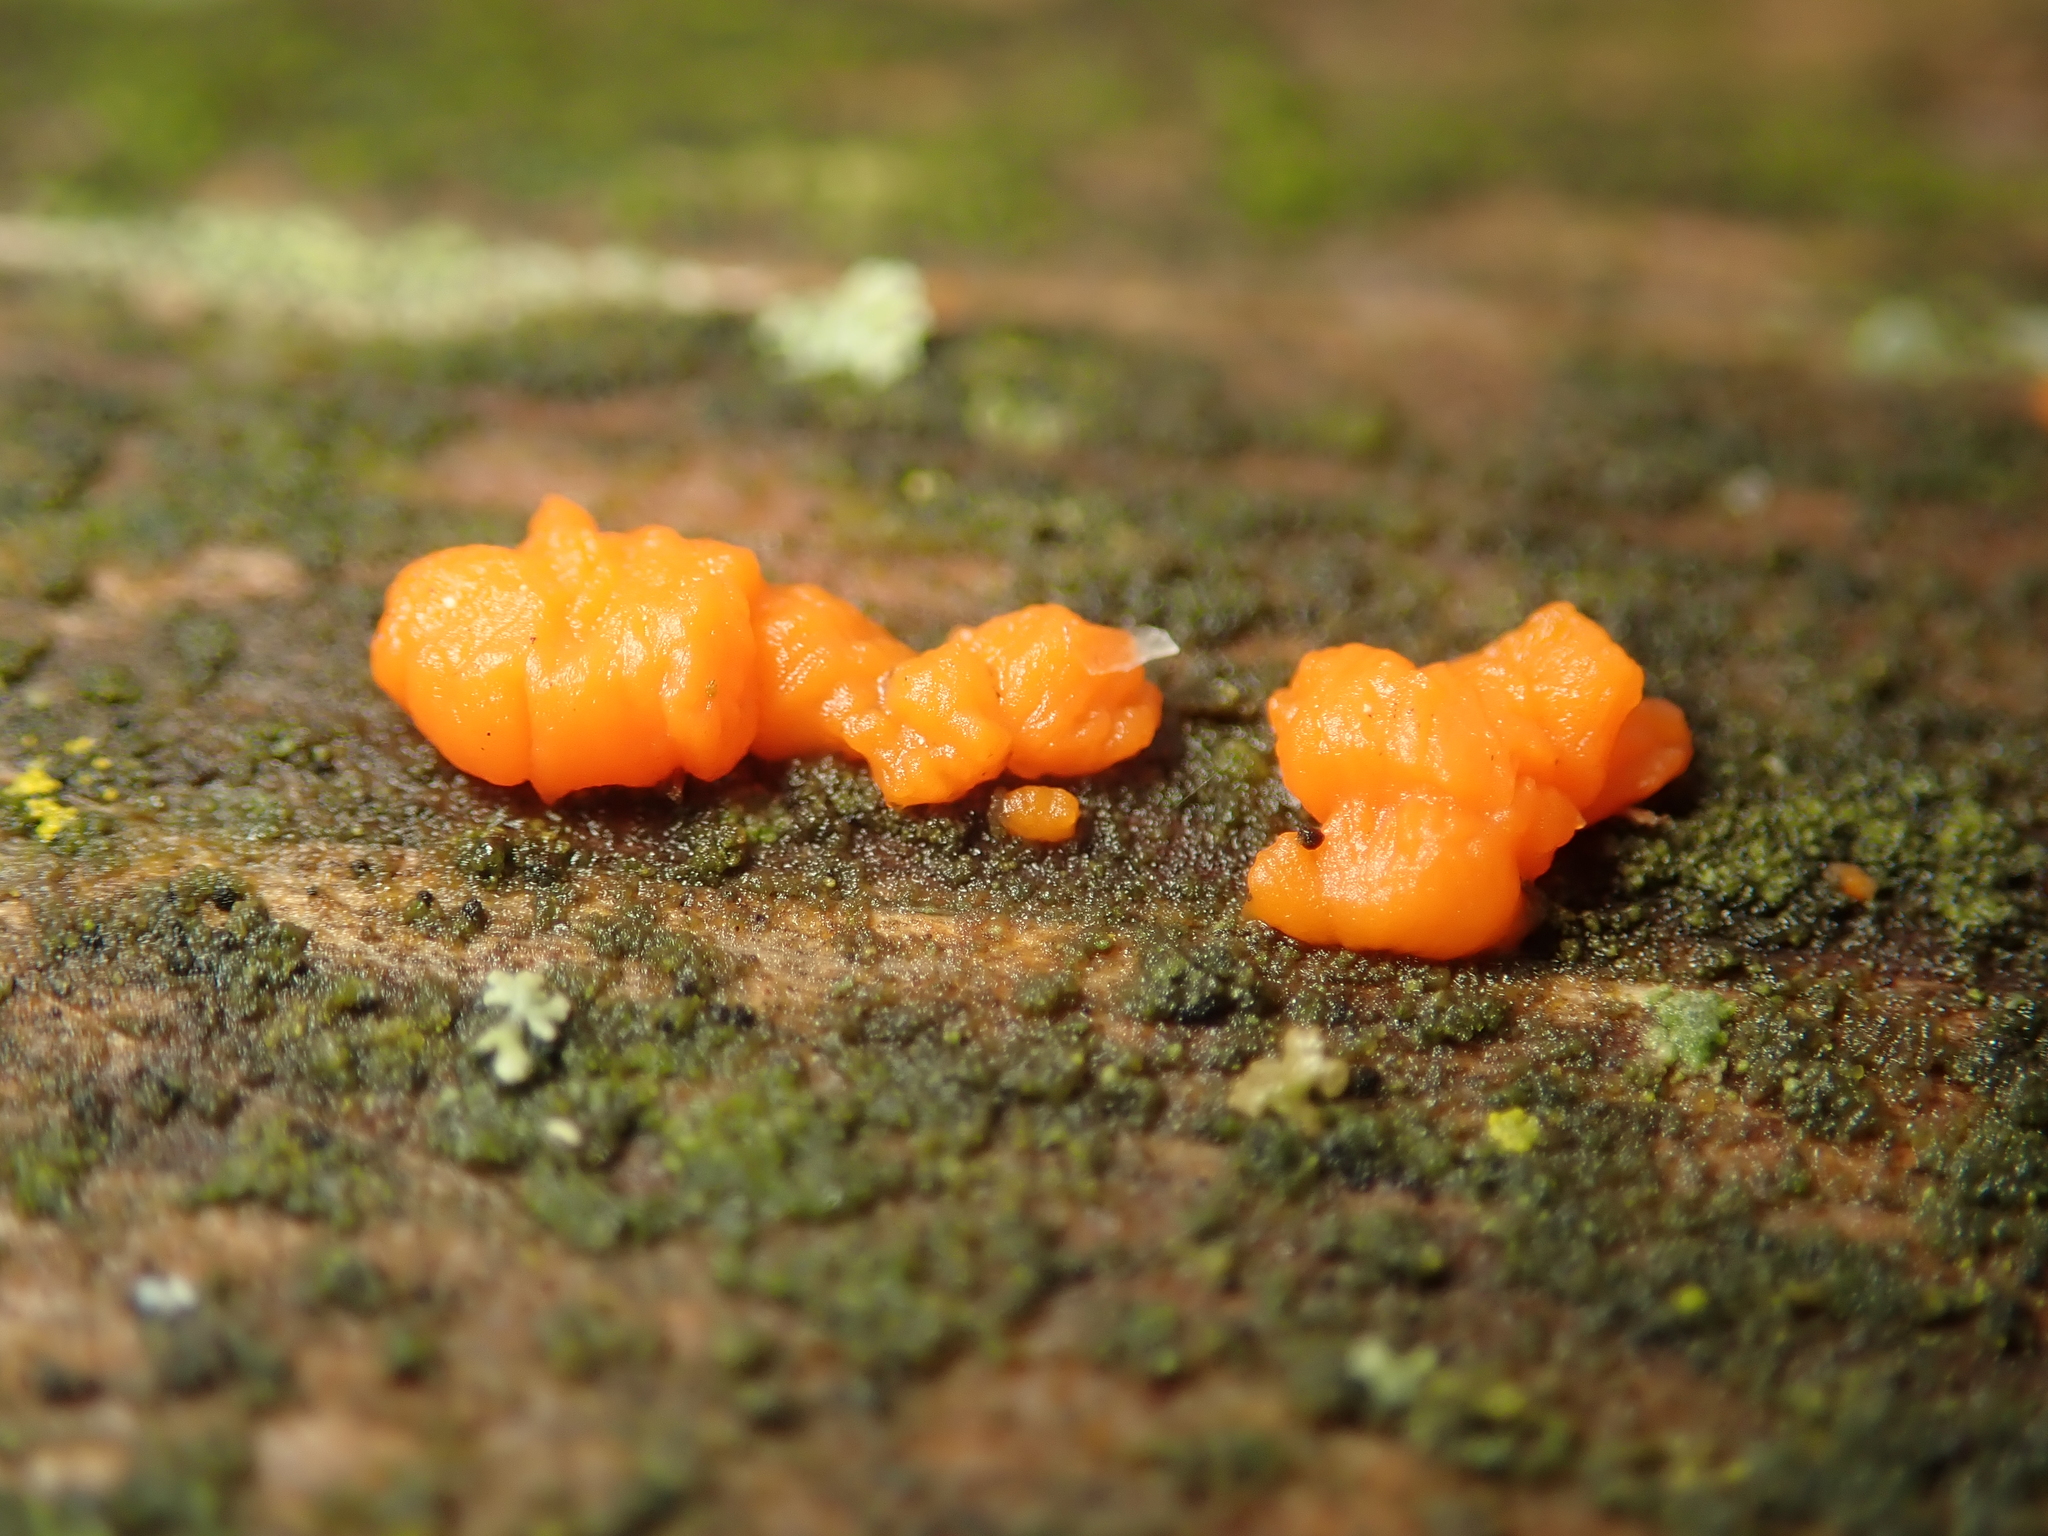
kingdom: Fungi
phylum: Basidiomycota
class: Dacrymycetes
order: Dacrymycetales
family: Dacrymycetaceae
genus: Dacrymyces
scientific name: Dacrymyces stillatus
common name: Common jelly spot
